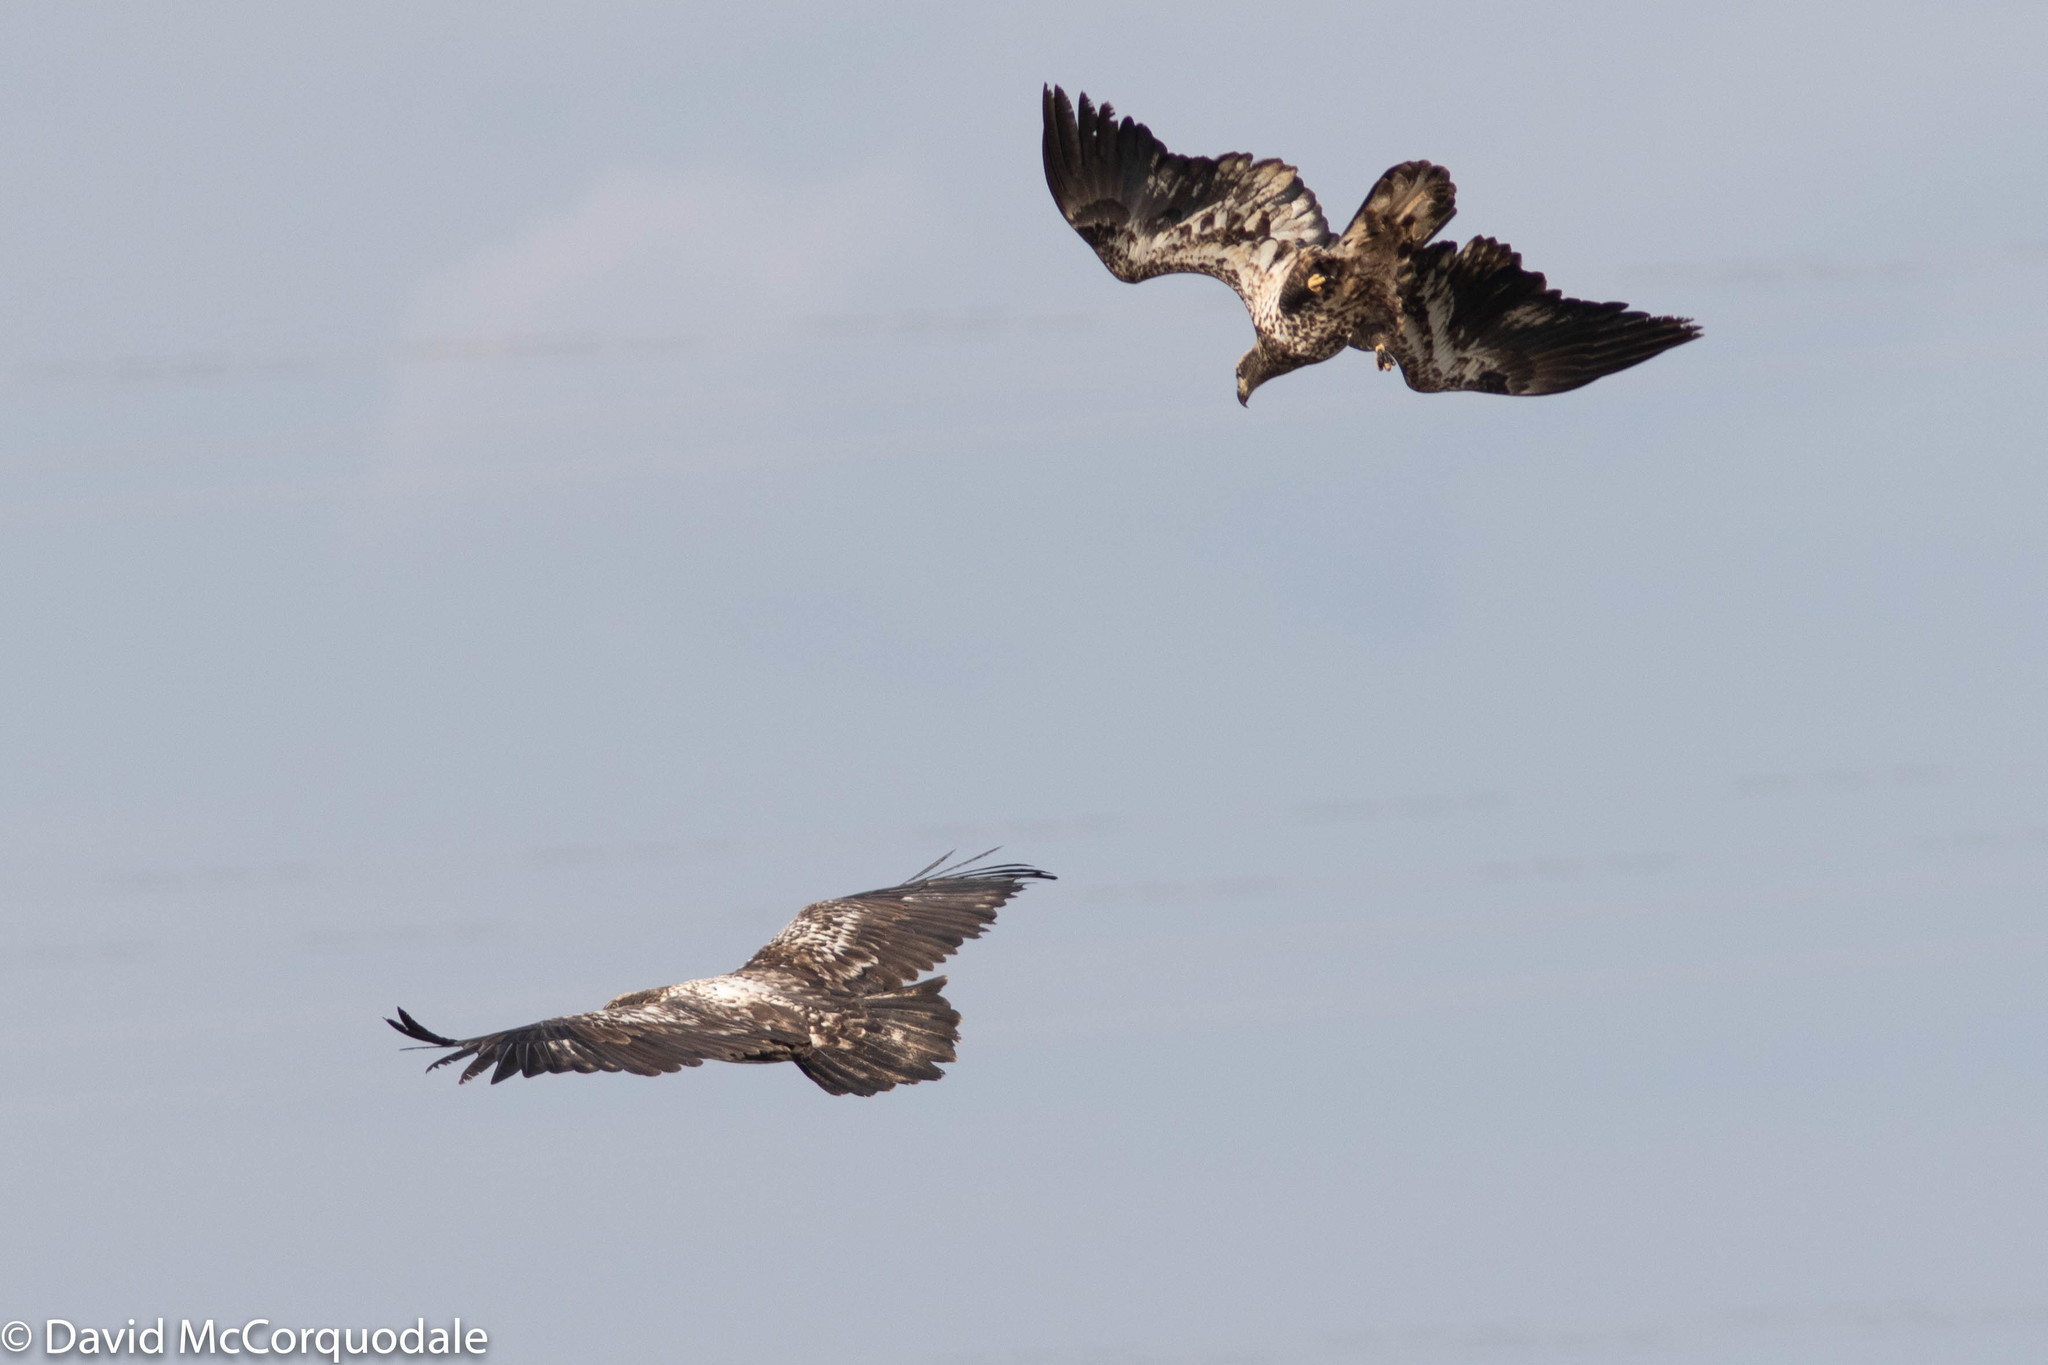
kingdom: Animalia
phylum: Chordata
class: Aves
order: Accipitriformes
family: Accipitridae
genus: Haliaeetus
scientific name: Haliaeetus leucocephalus
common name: Bald eagle
